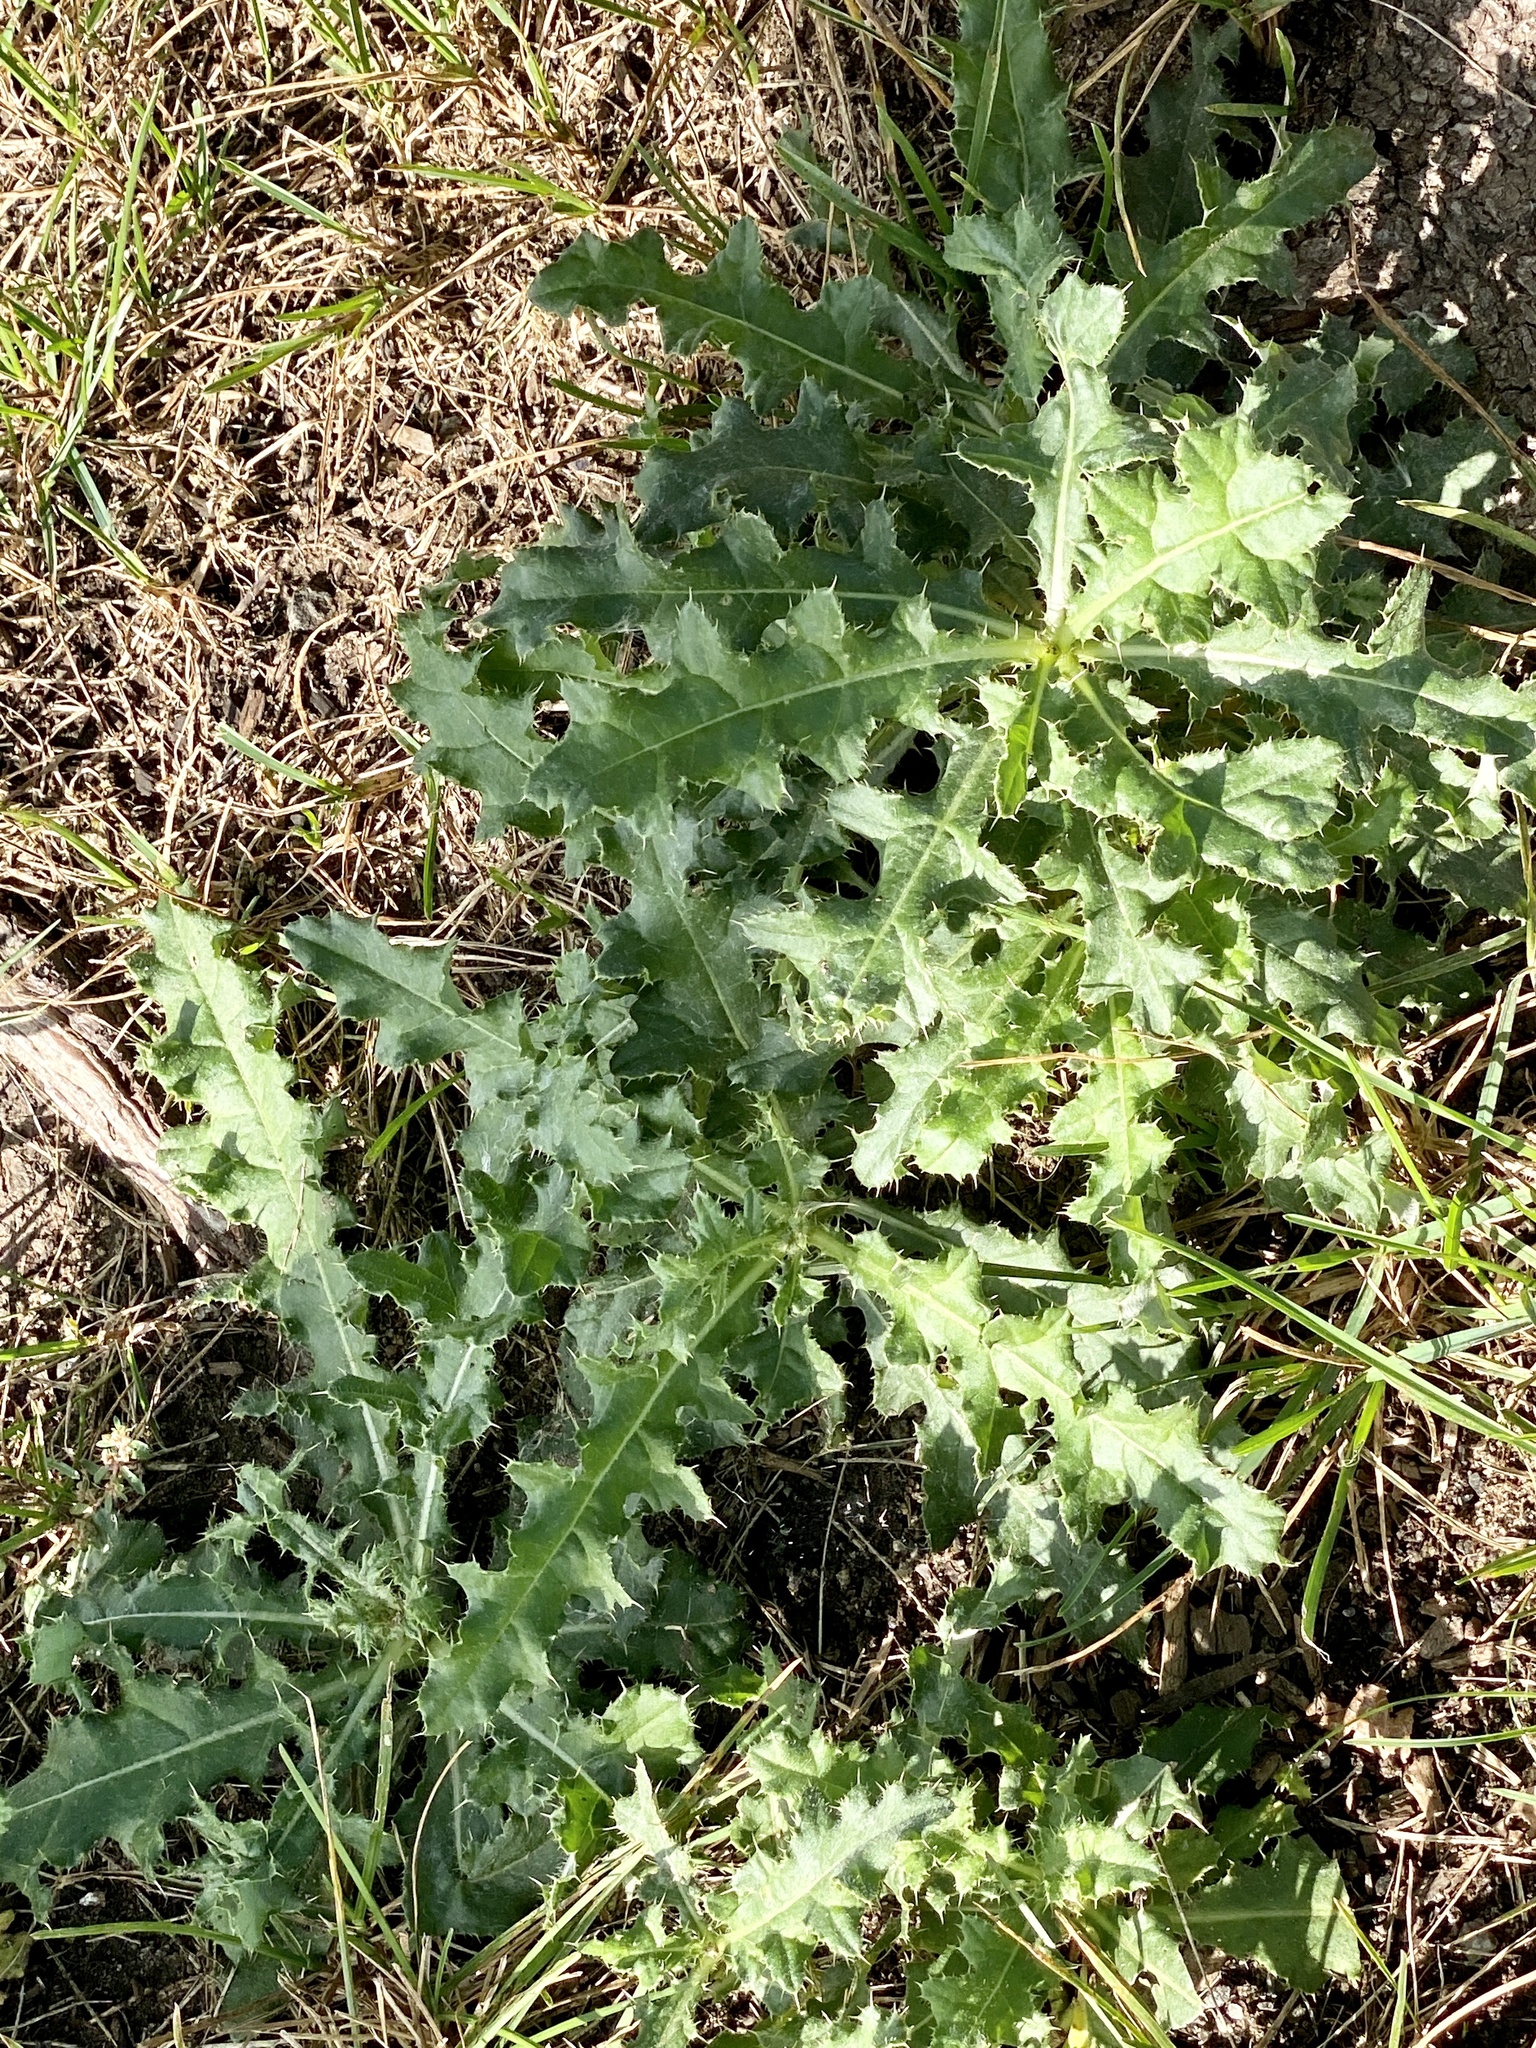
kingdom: Plantae
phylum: Tracheophyta
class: Magnoliopsida
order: Asterales
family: Asteraceae
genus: Cirsium
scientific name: Cirsium arvense
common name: Creeping thistle
